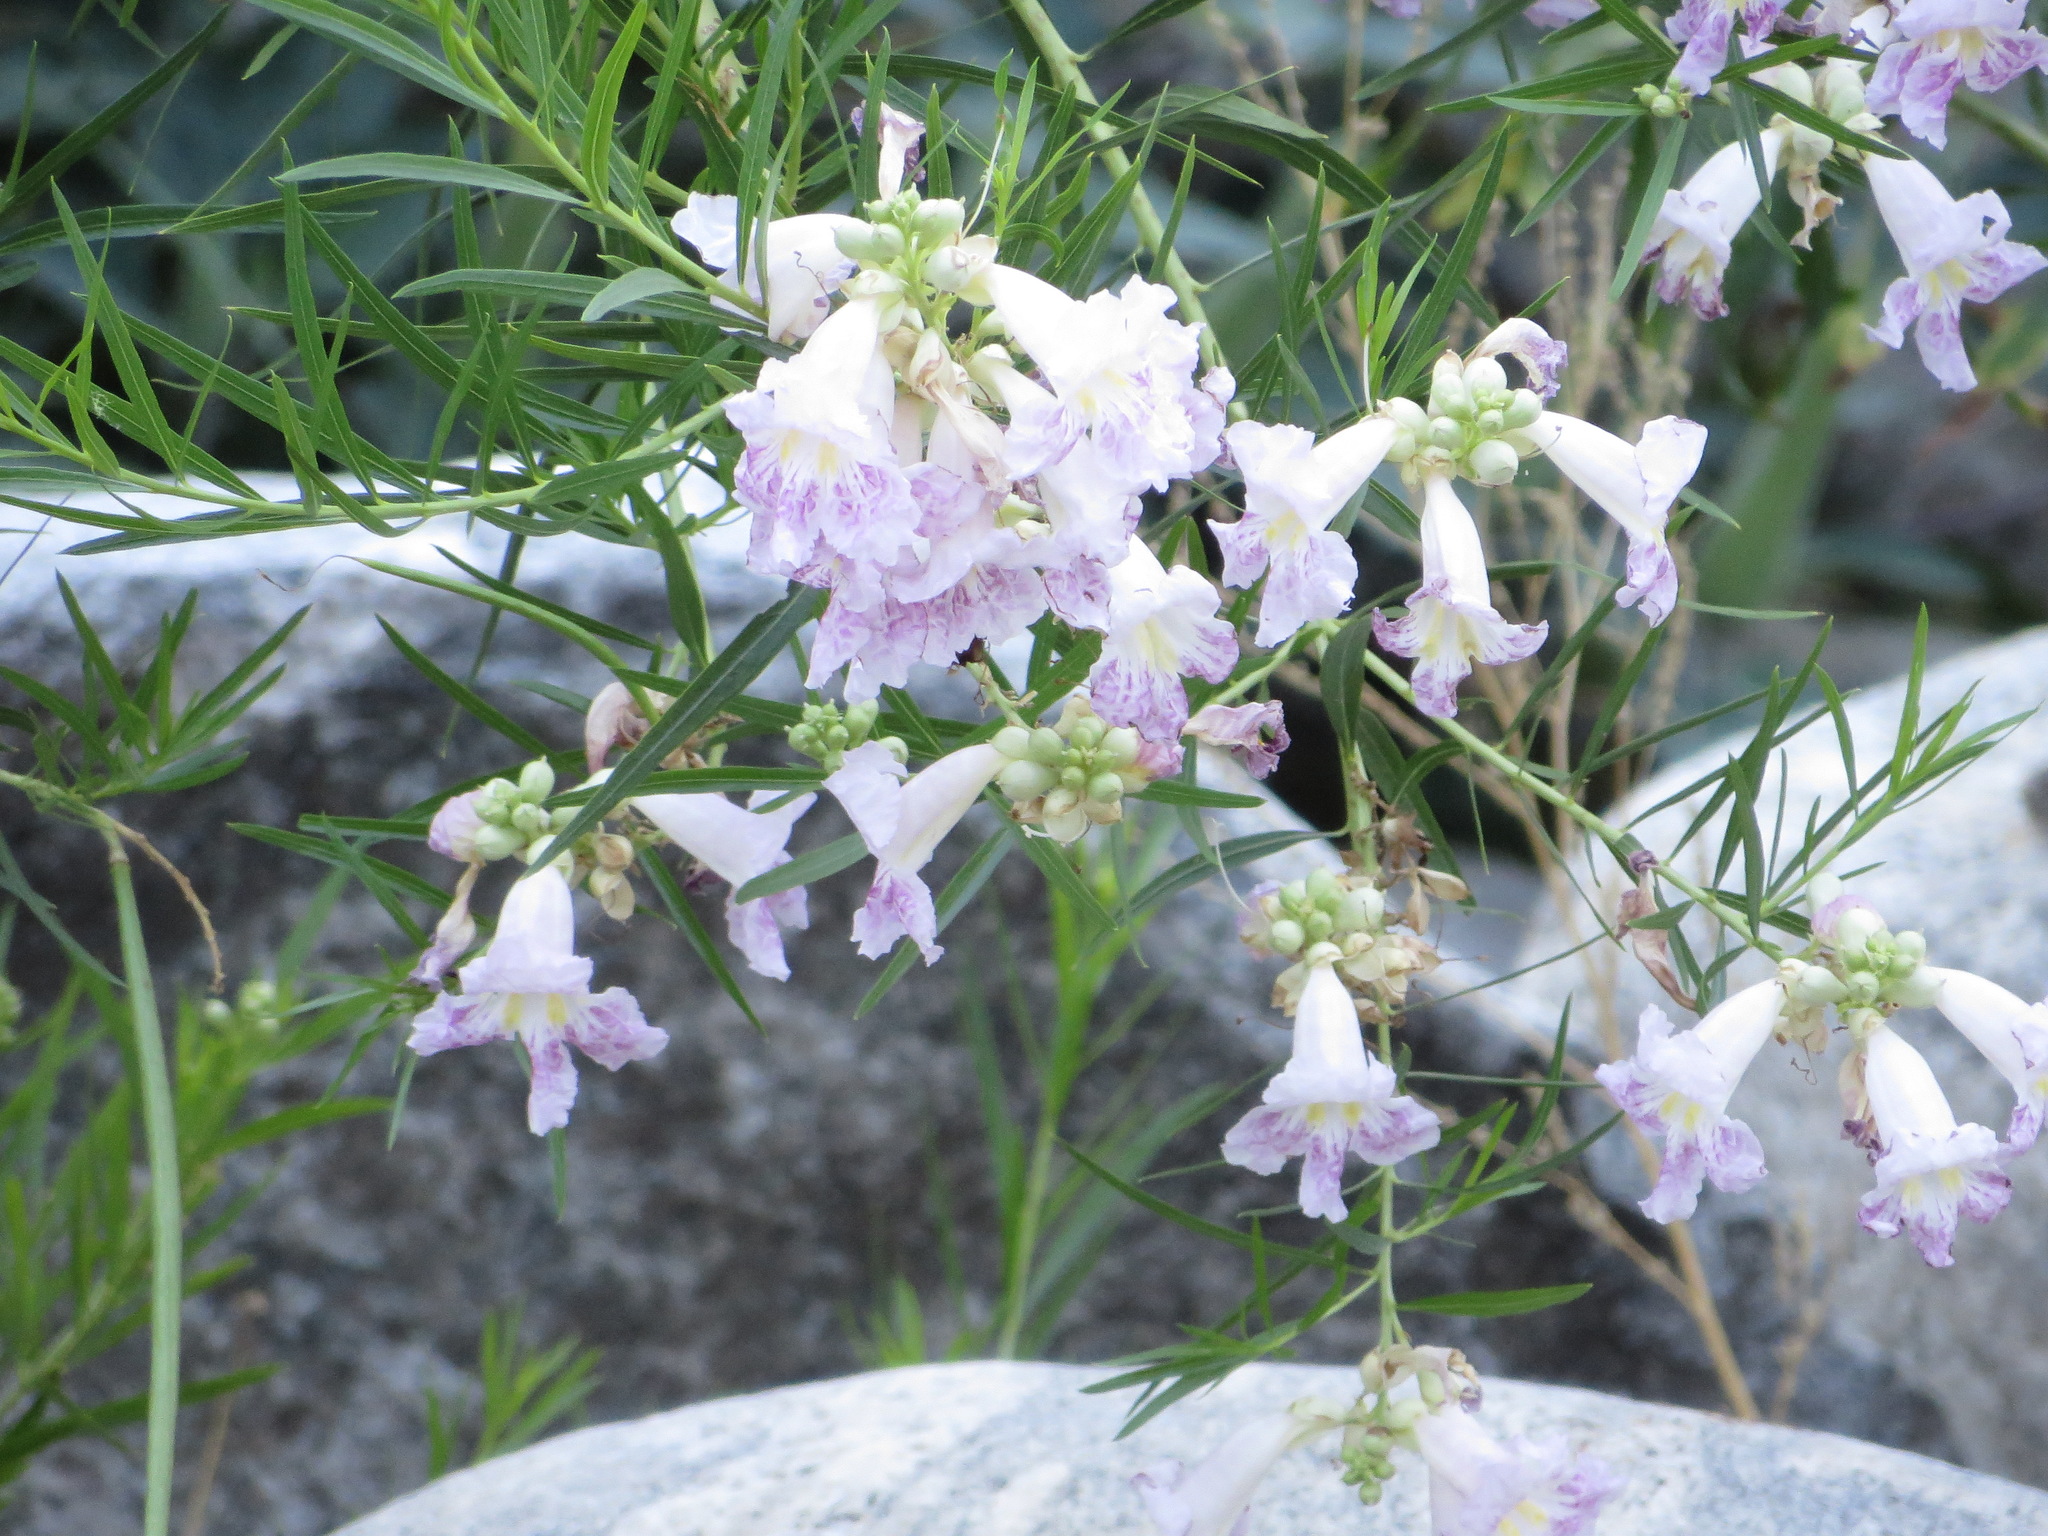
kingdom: Plantae
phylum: Tracheophyta
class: Magnoliopsida
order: Lamiales
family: Bignoniaceae
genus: Chilopsis
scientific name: Chilopsis linearis
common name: Desert-willow
